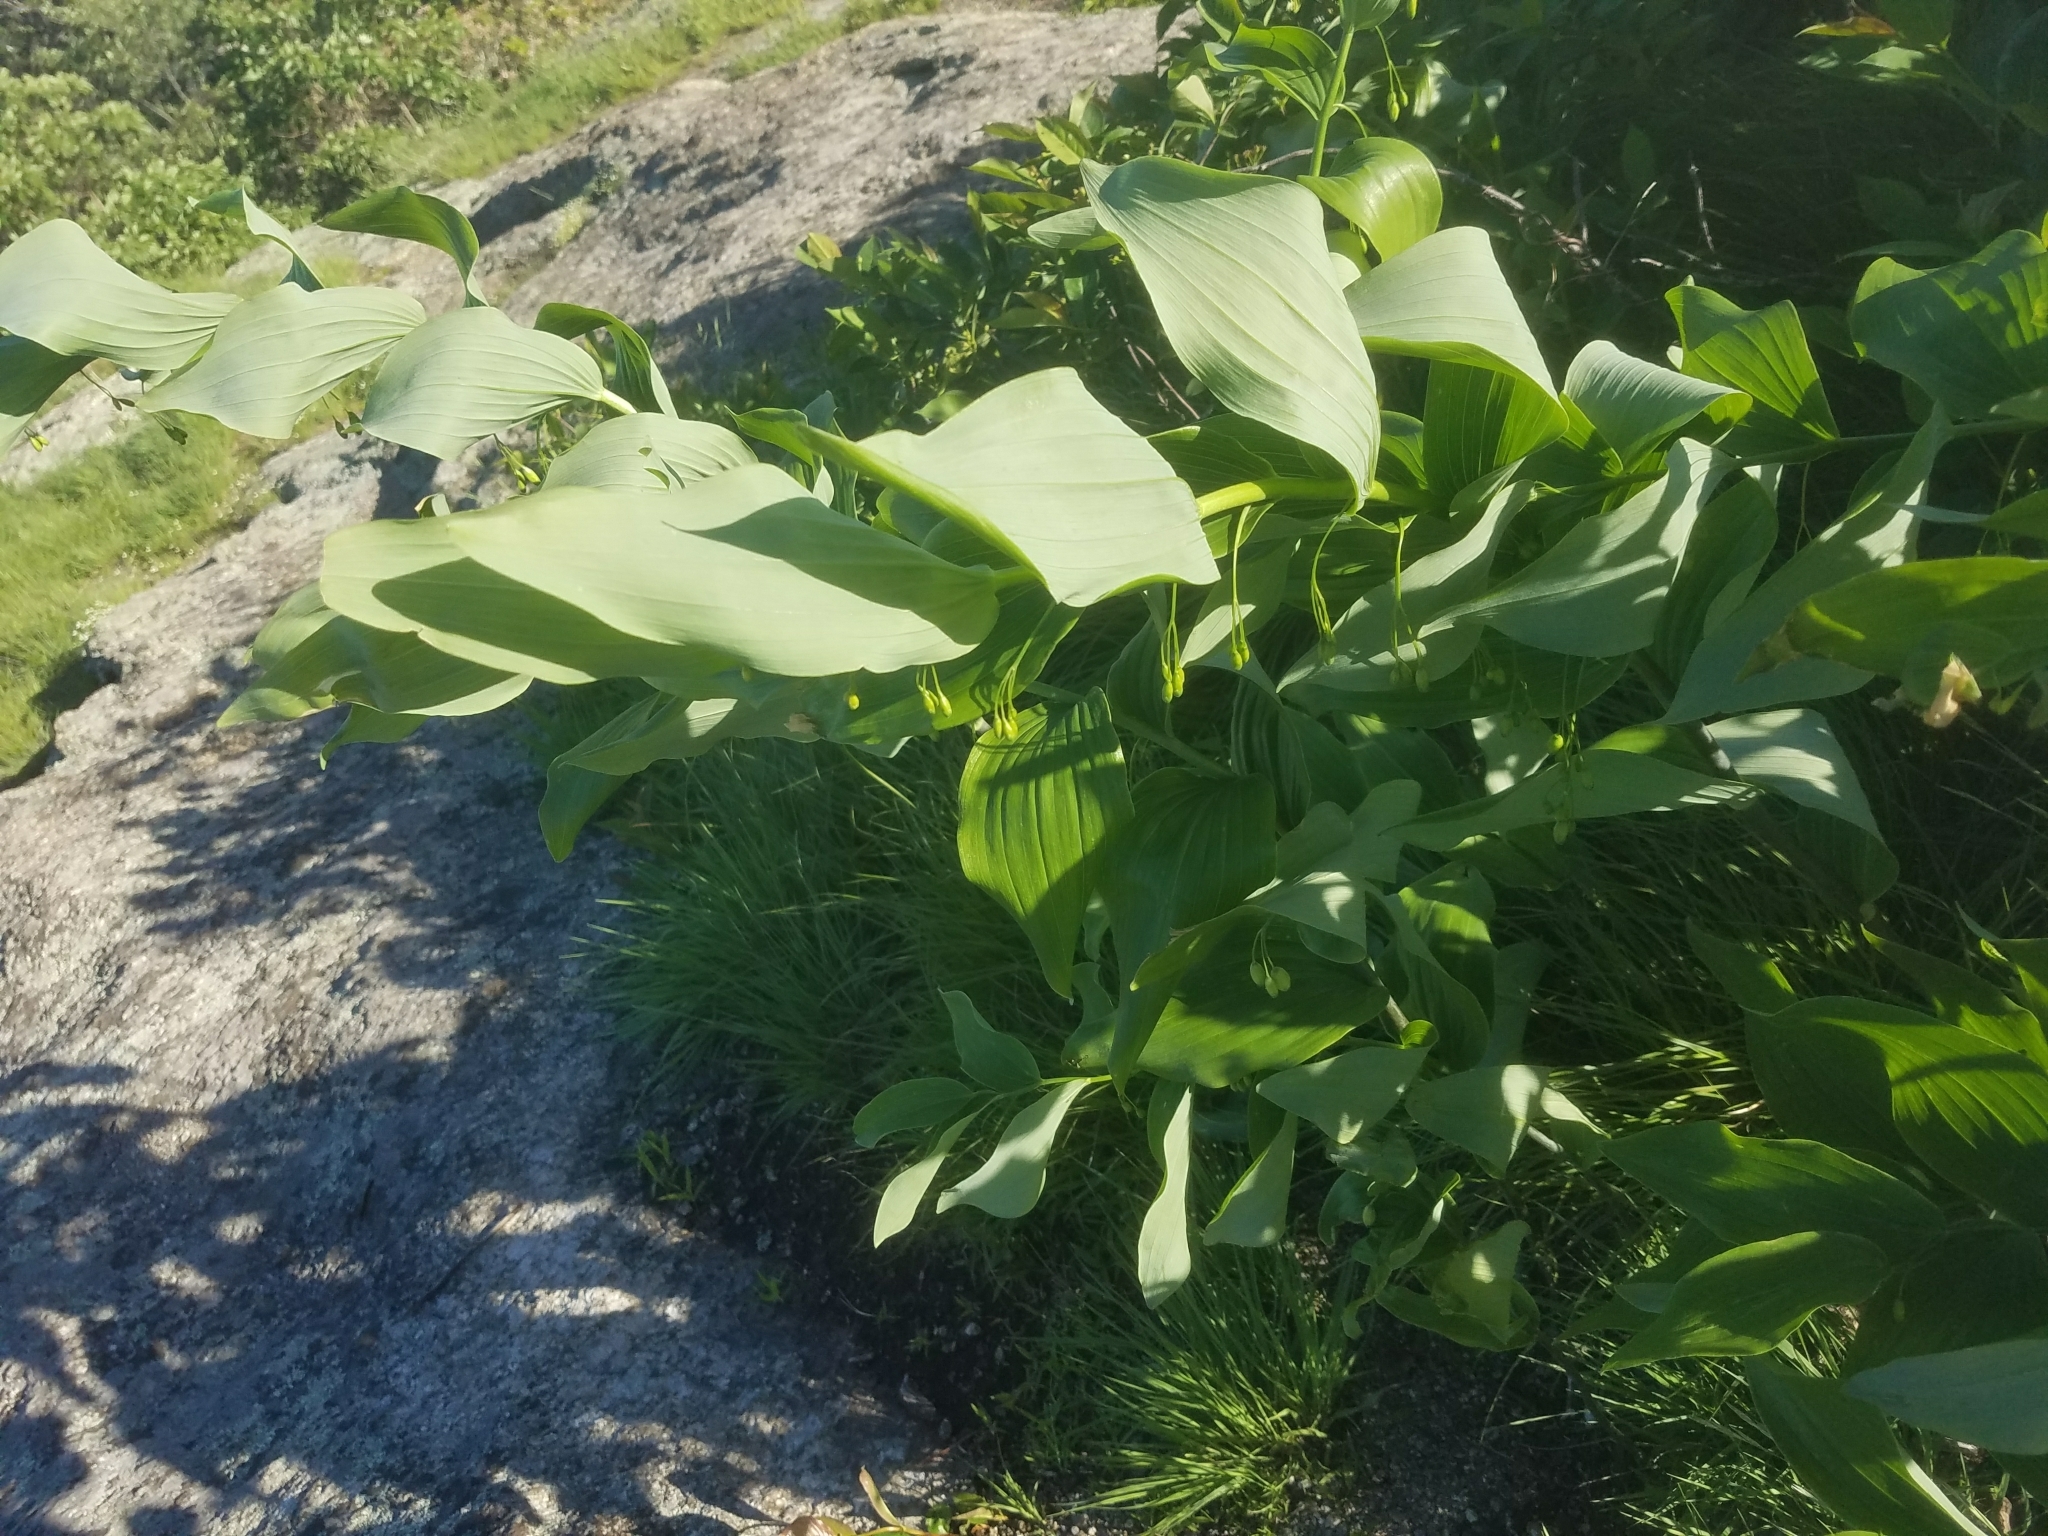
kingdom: Plantae
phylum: Tracheophyta
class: Liliopsida
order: Asparagales
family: Asparagaceae
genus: Polygonatum
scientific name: Polygonatum biflorum
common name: American solomon's-seal
